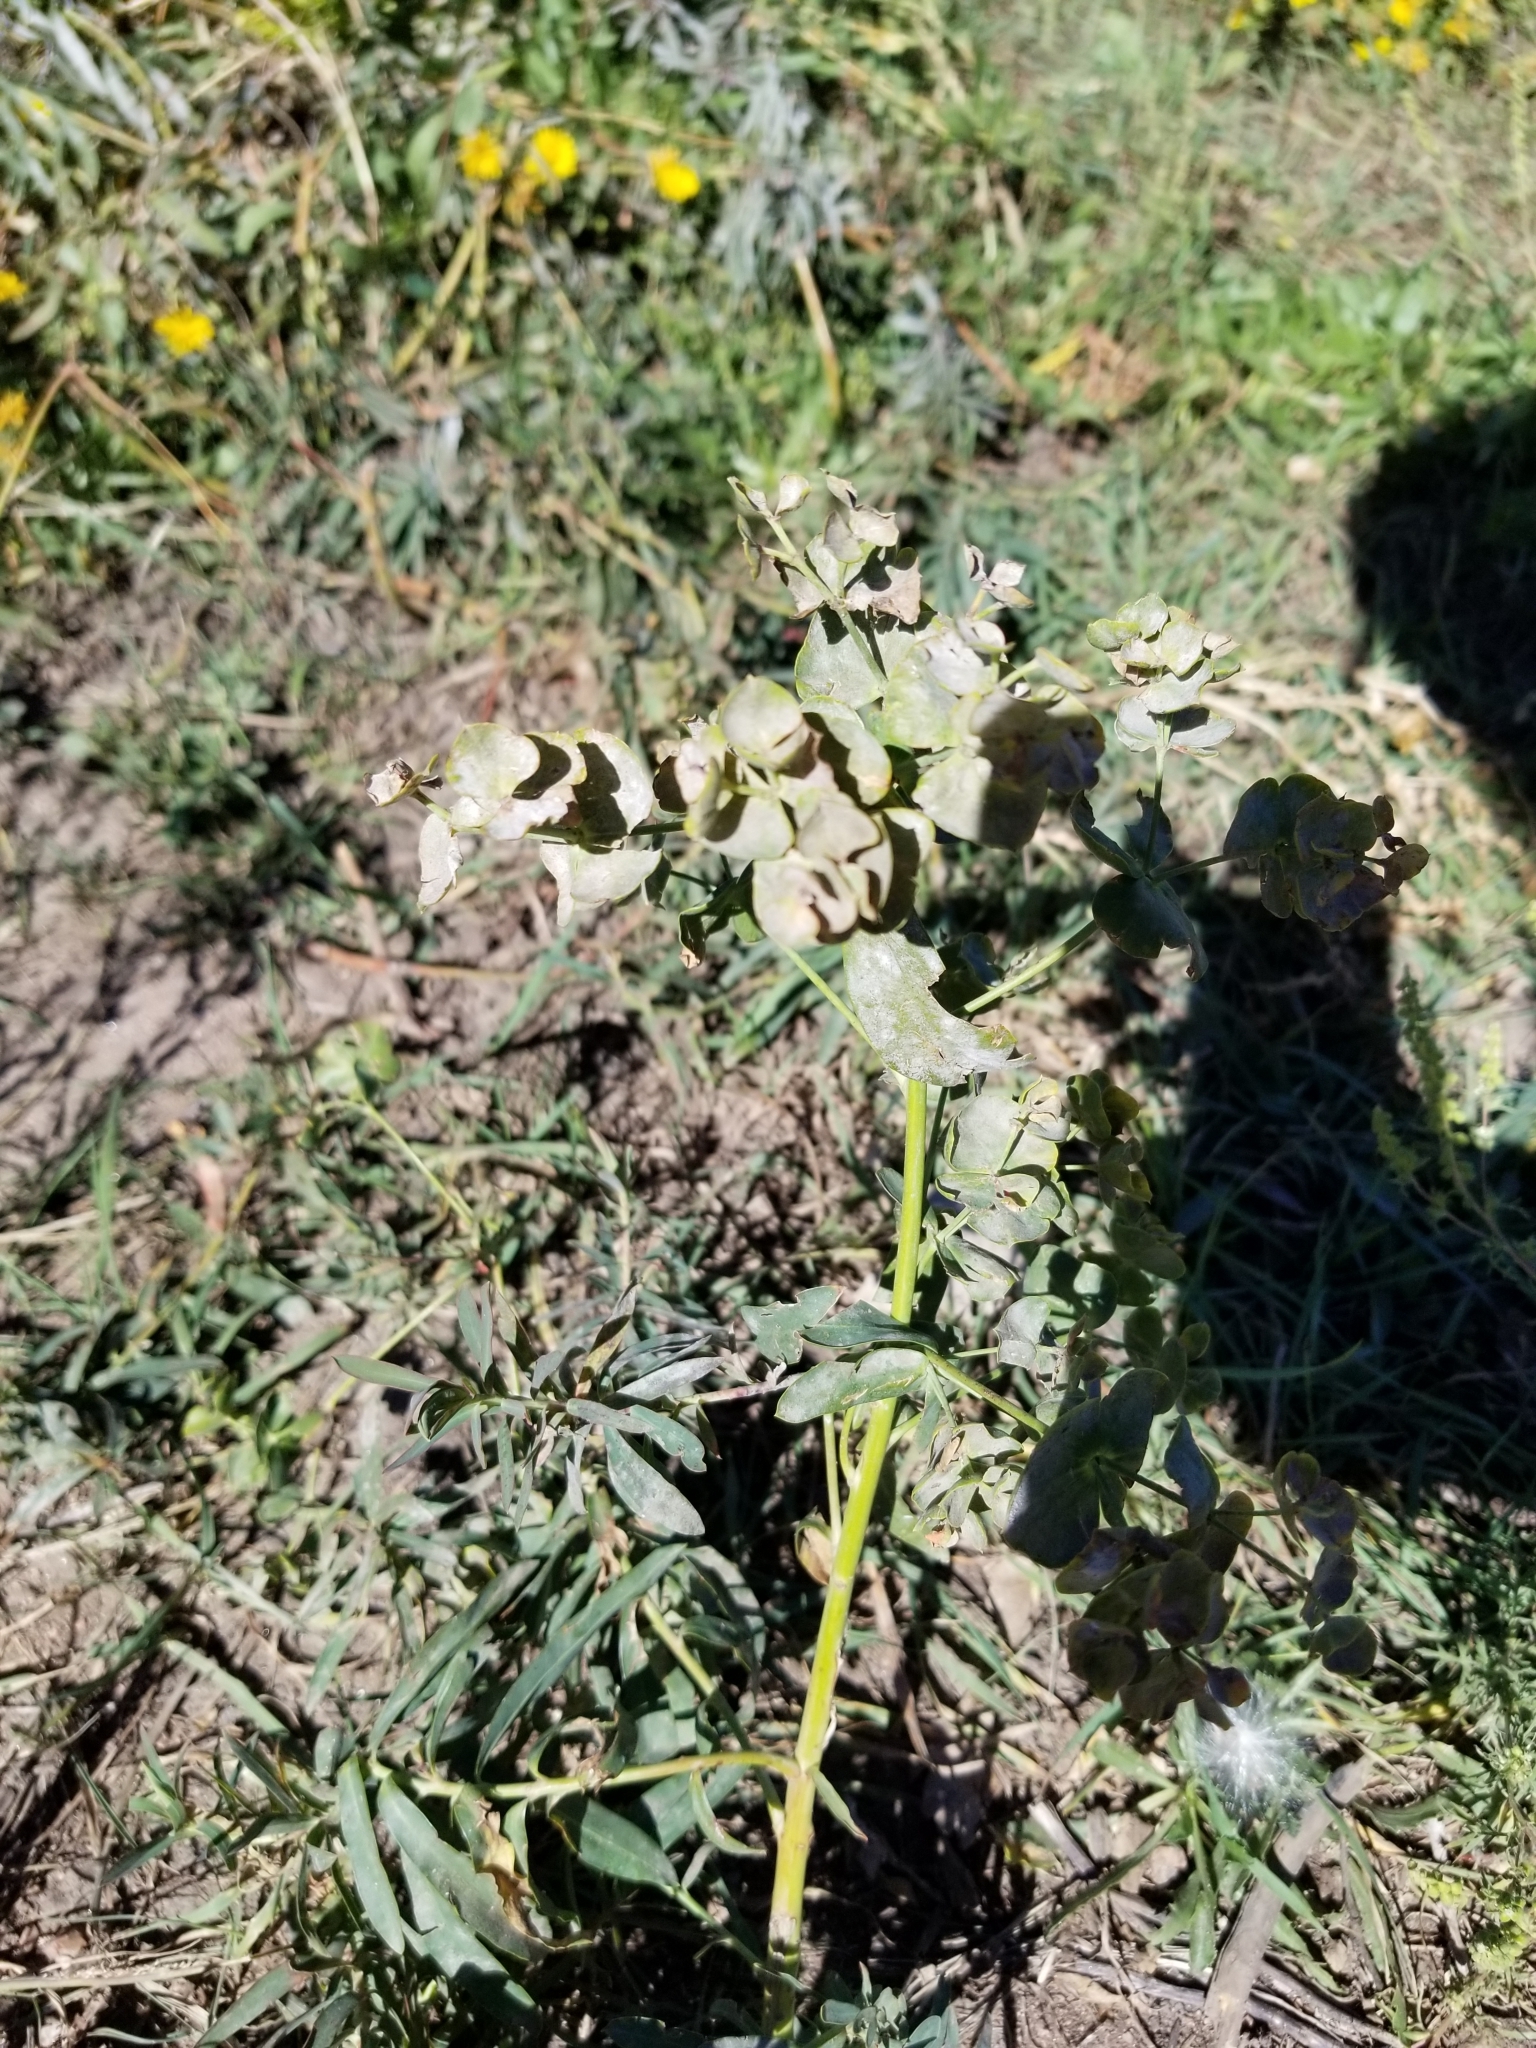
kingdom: Plantae
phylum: Tracheophyta
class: Magnoliopsida
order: Malpighiales
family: Euphorbiaceae
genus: Euphorbia
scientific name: Euphorbia virgata
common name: Leafy spurge
